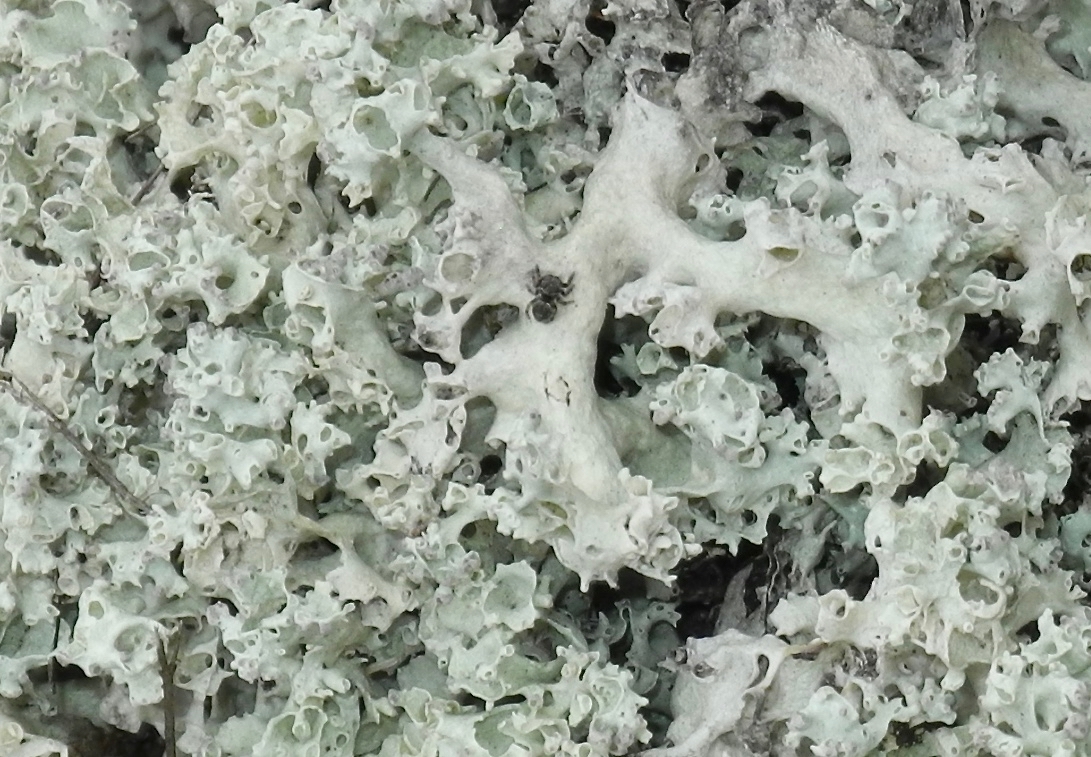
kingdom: Fungi
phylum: Ascomycota
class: Lecanoromycetes
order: Lecanorales
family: Cladoniaceae
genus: Cladonia
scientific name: Cladonia caroliniana
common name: Granite thorn
